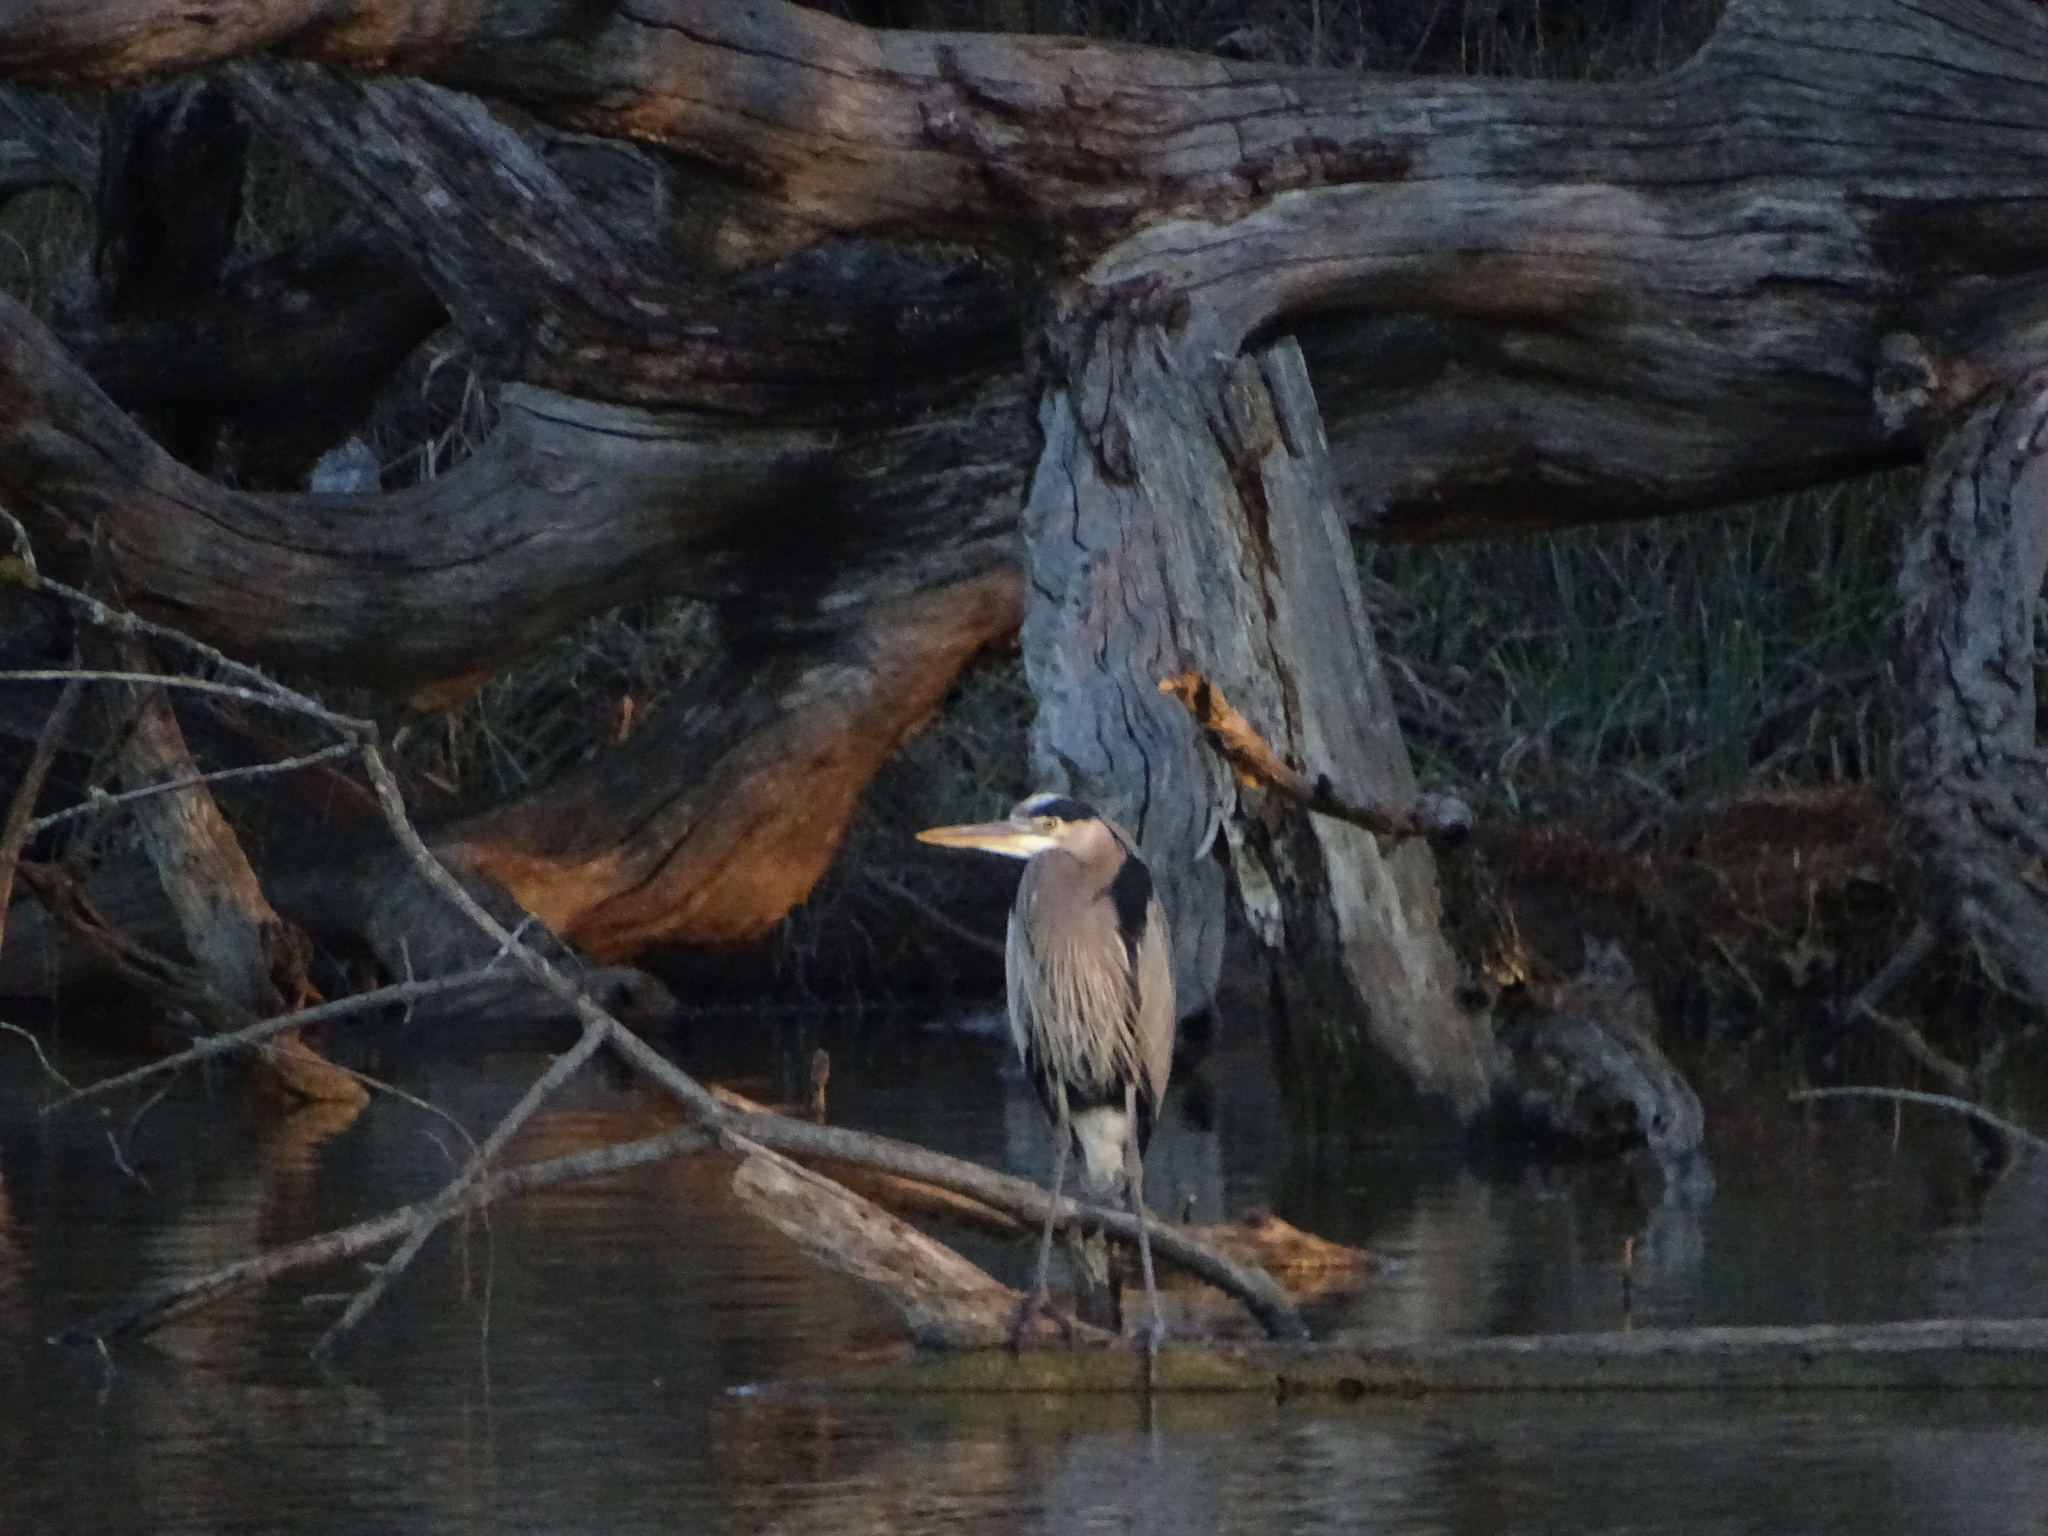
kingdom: Animalia
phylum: Chordata
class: Aves
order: Pelecaniformes
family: Ardeidae
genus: Ardea
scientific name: Ardea herodias
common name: Great blue heron
